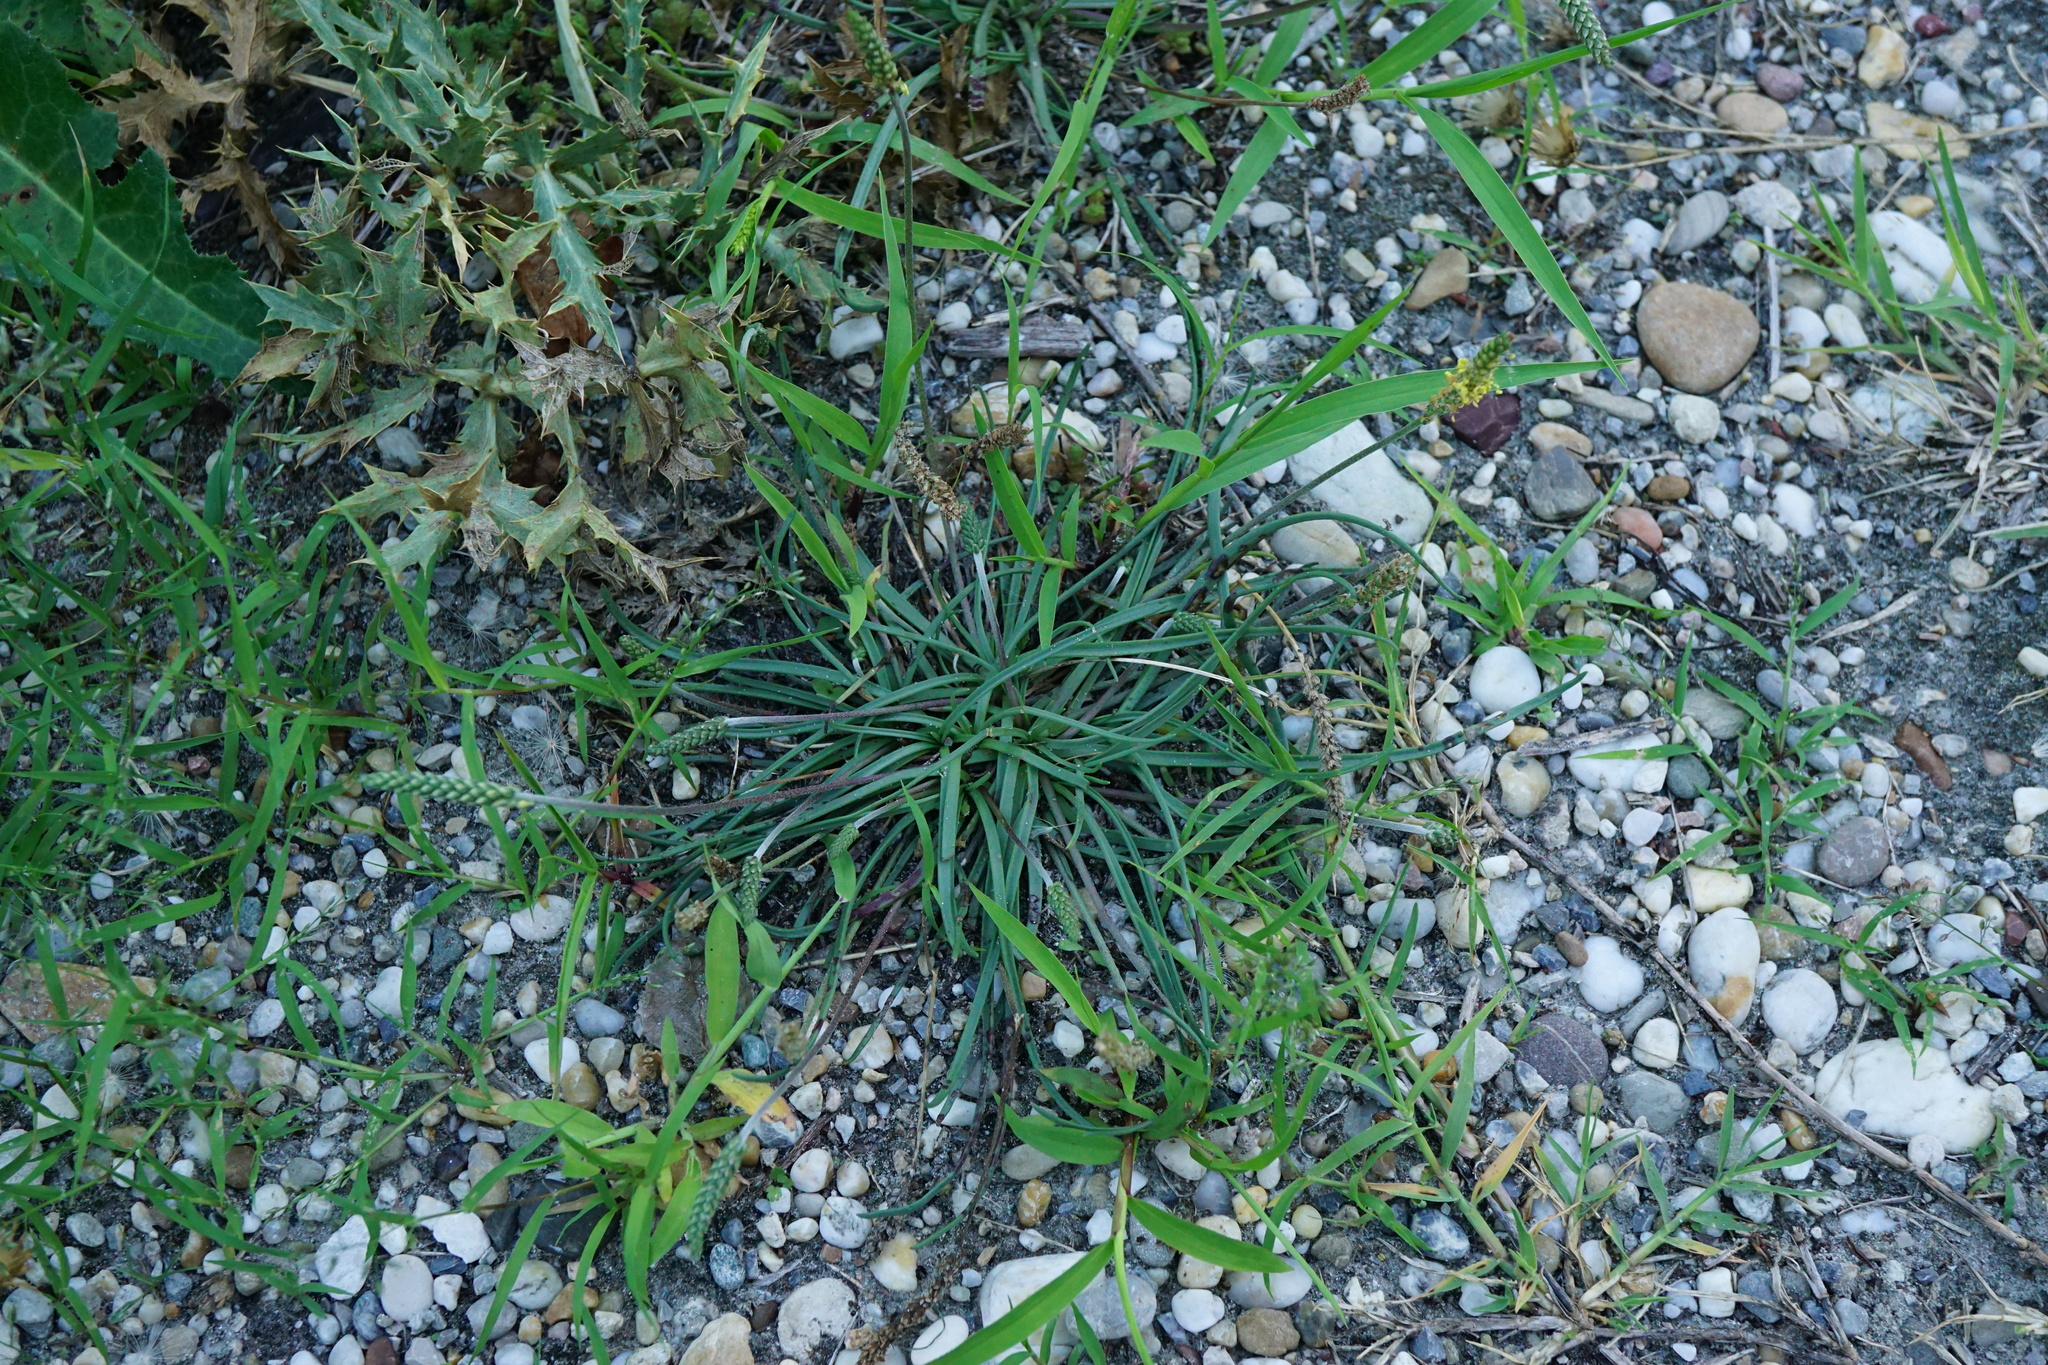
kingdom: Plantae
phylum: Tracheophyta
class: Magnoliopsida
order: Lamiales
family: Plantaginaceae
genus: Plantago
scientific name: Plantago maritima
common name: Sea plantain
